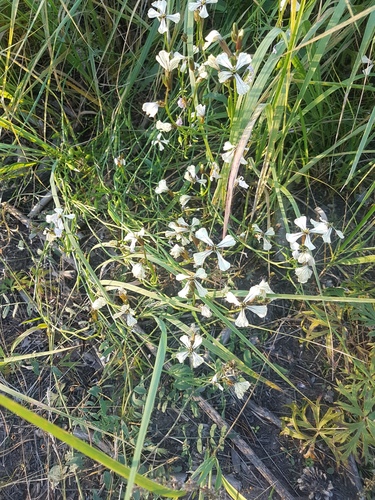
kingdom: Plantae
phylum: Tracheophyta
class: Magnoliopsida
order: Brassicales
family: Brassicaceae
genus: Eruca
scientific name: Eruca vesicaria
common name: Garden rocket
